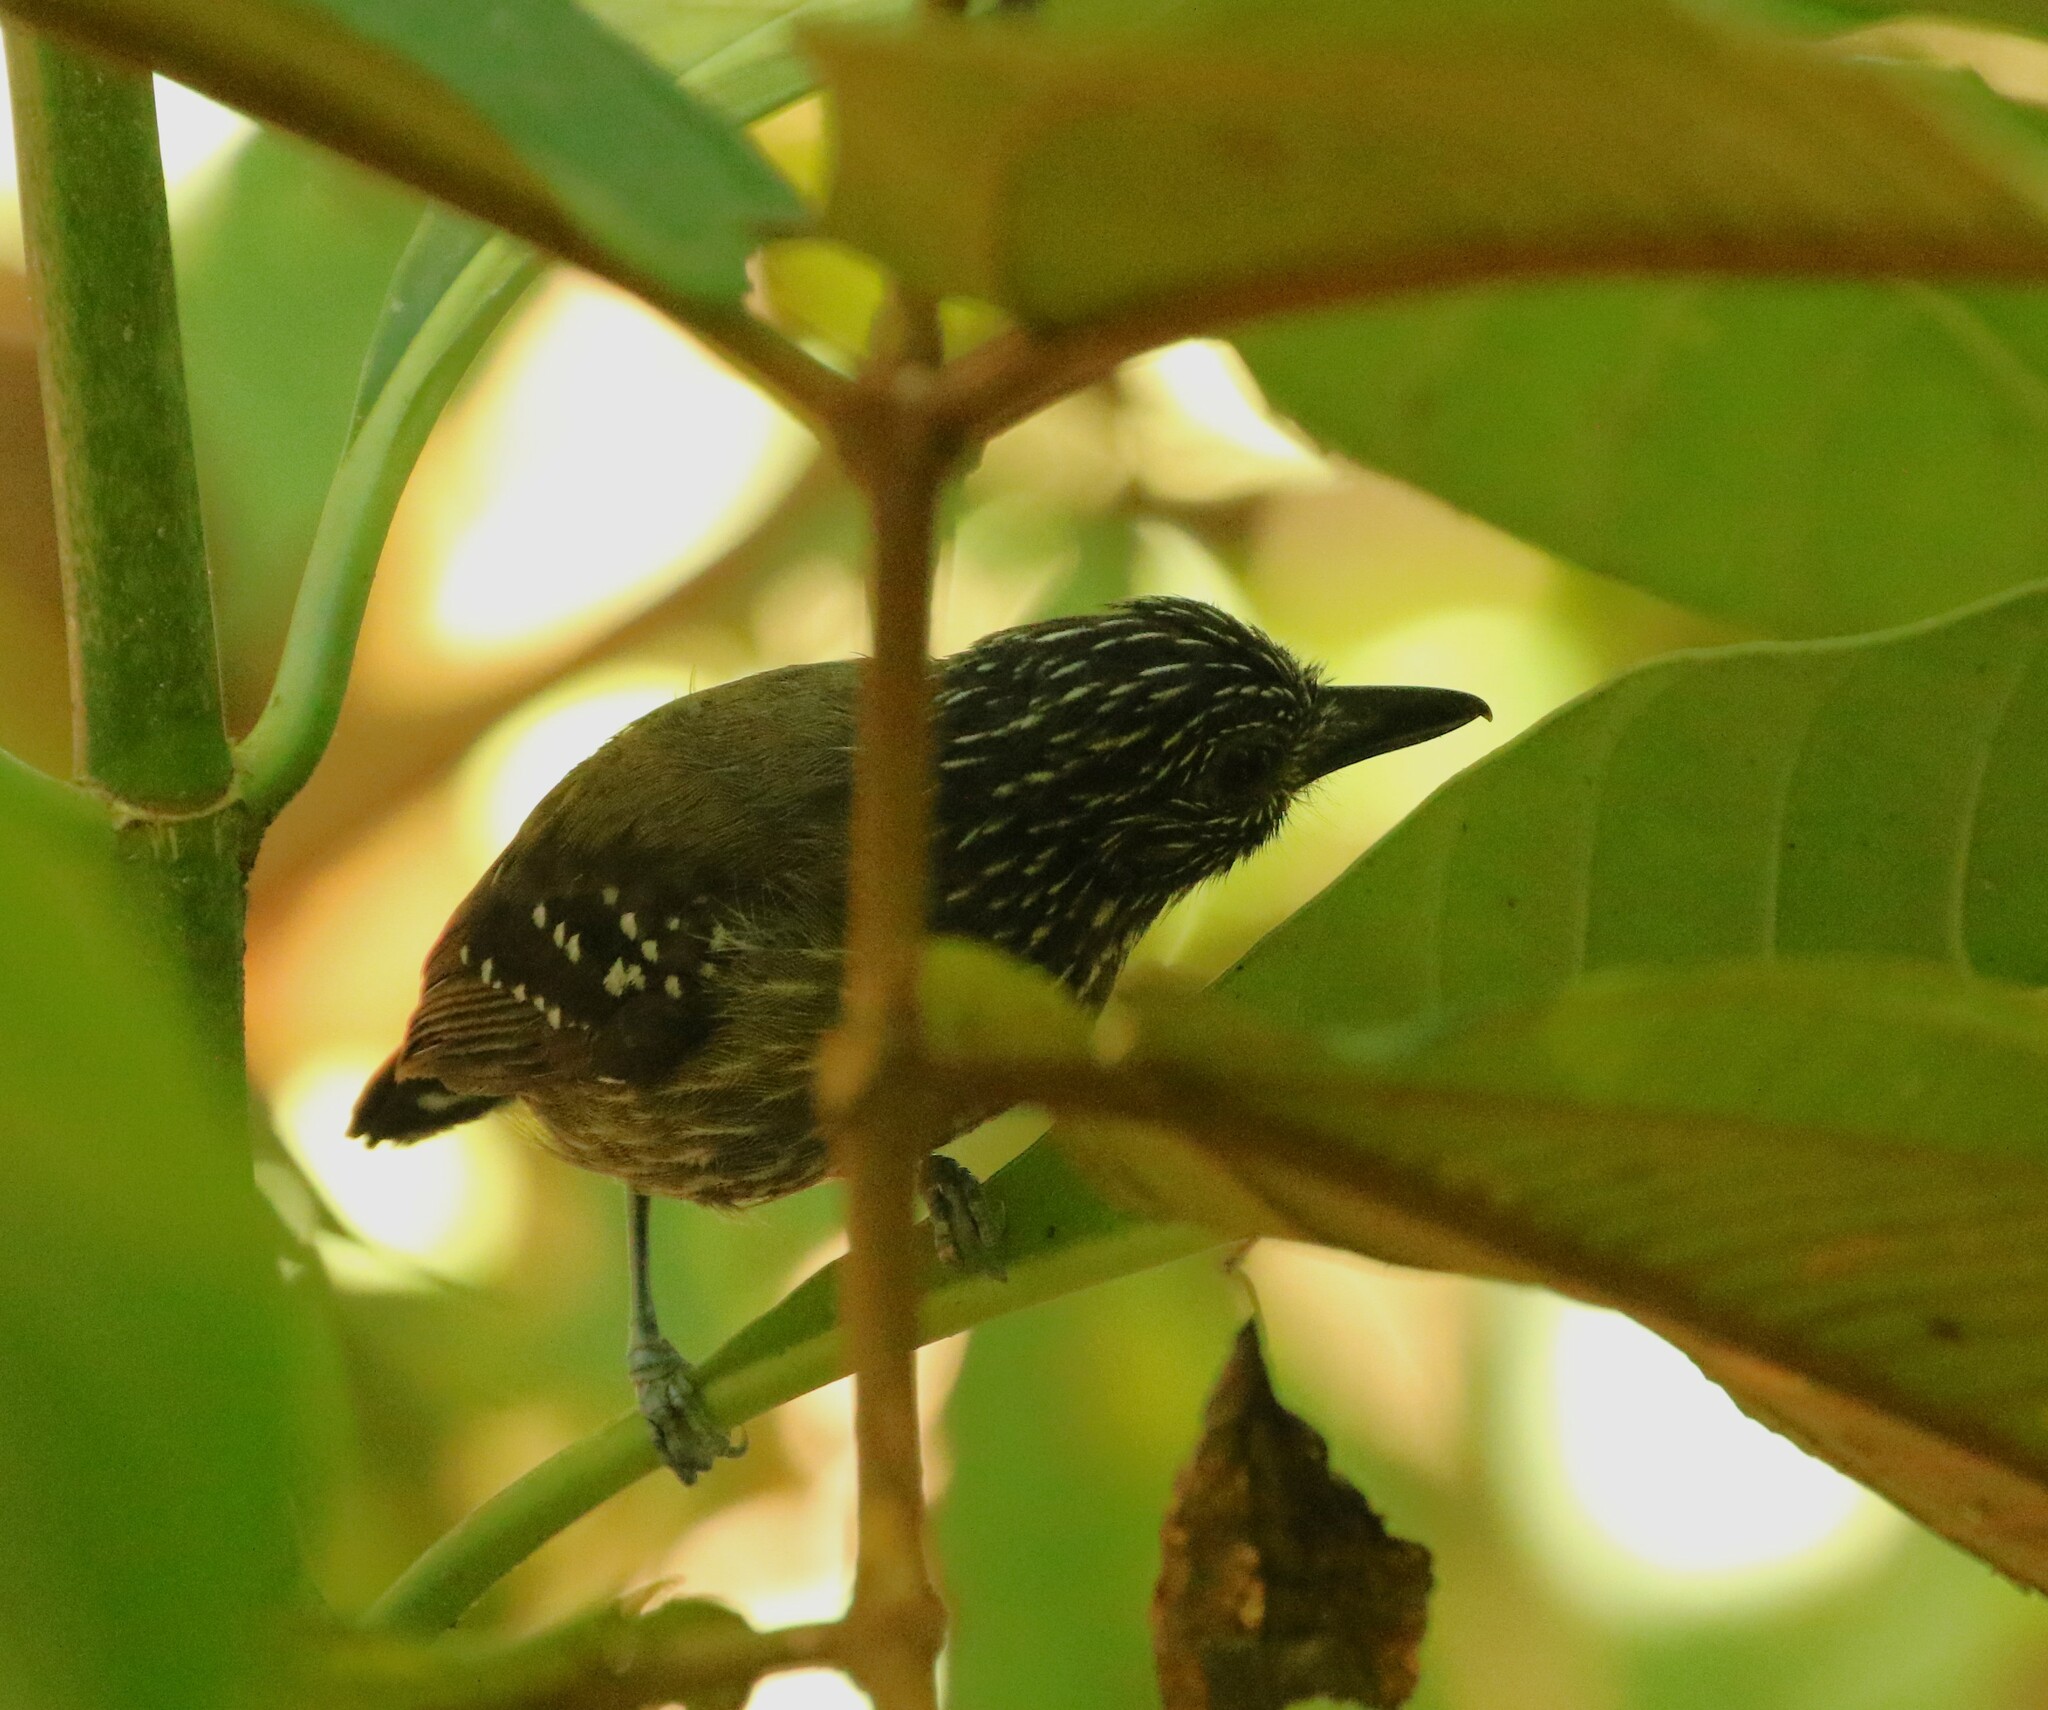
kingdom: Animalia
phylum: Chordata
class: Aves
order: Passeriformes
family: Thamnophilidae
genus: Thamnophilus
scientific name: Thamnophilus bridgesi
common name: Black-hooded antshrike
